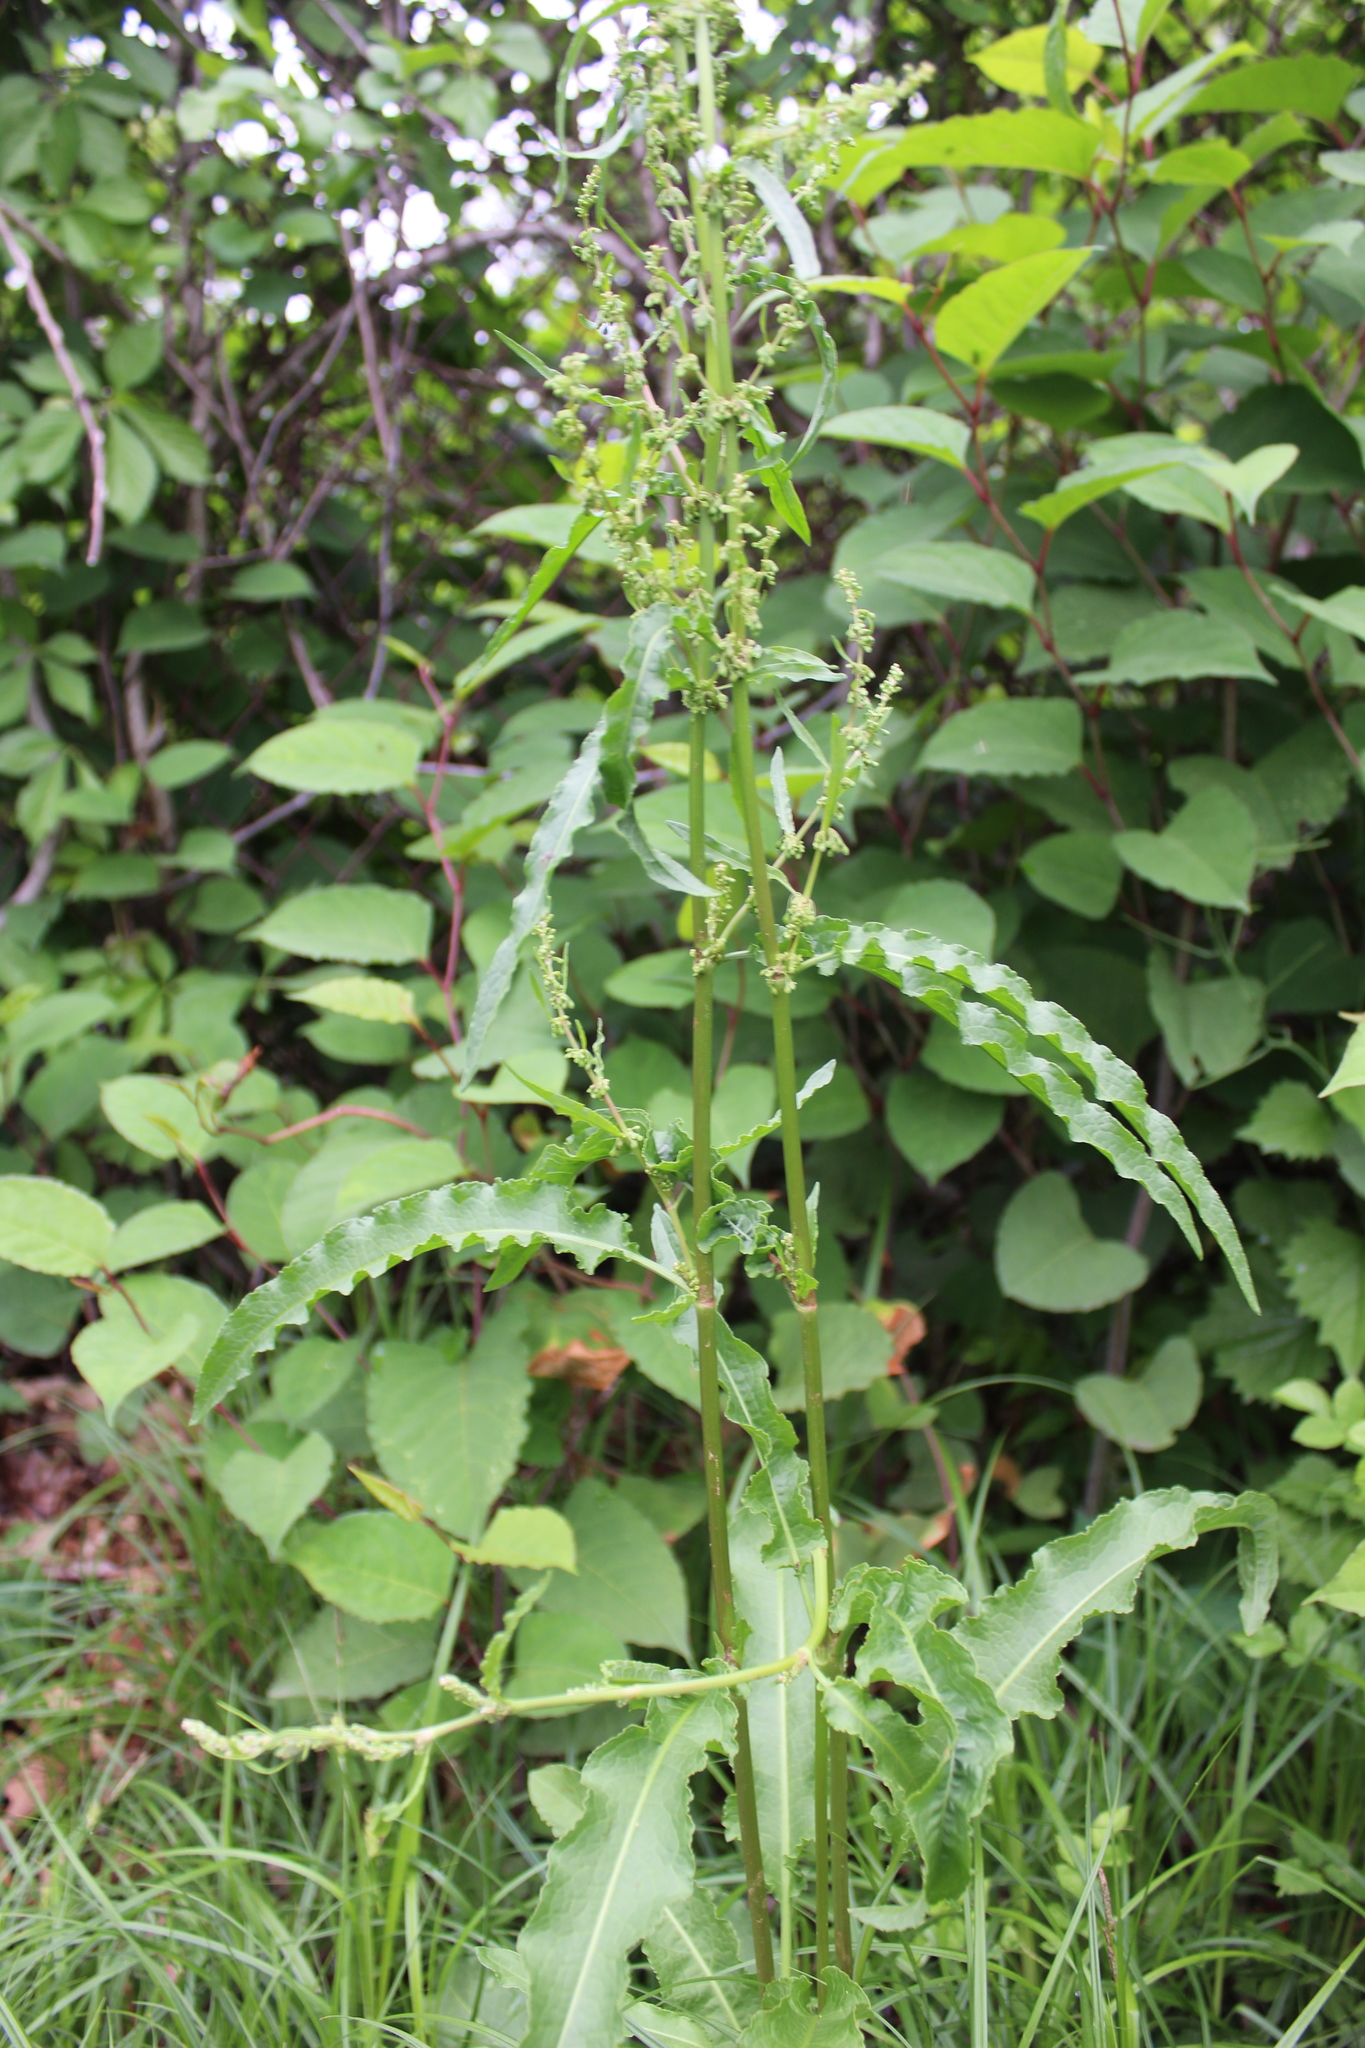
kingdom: Plantae
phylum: Tracheophyta
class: Magnoliopsida
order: Caryophyllales
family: Polygonaceae
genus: Rumex
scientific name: Rumex crispus
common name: Curled dock
